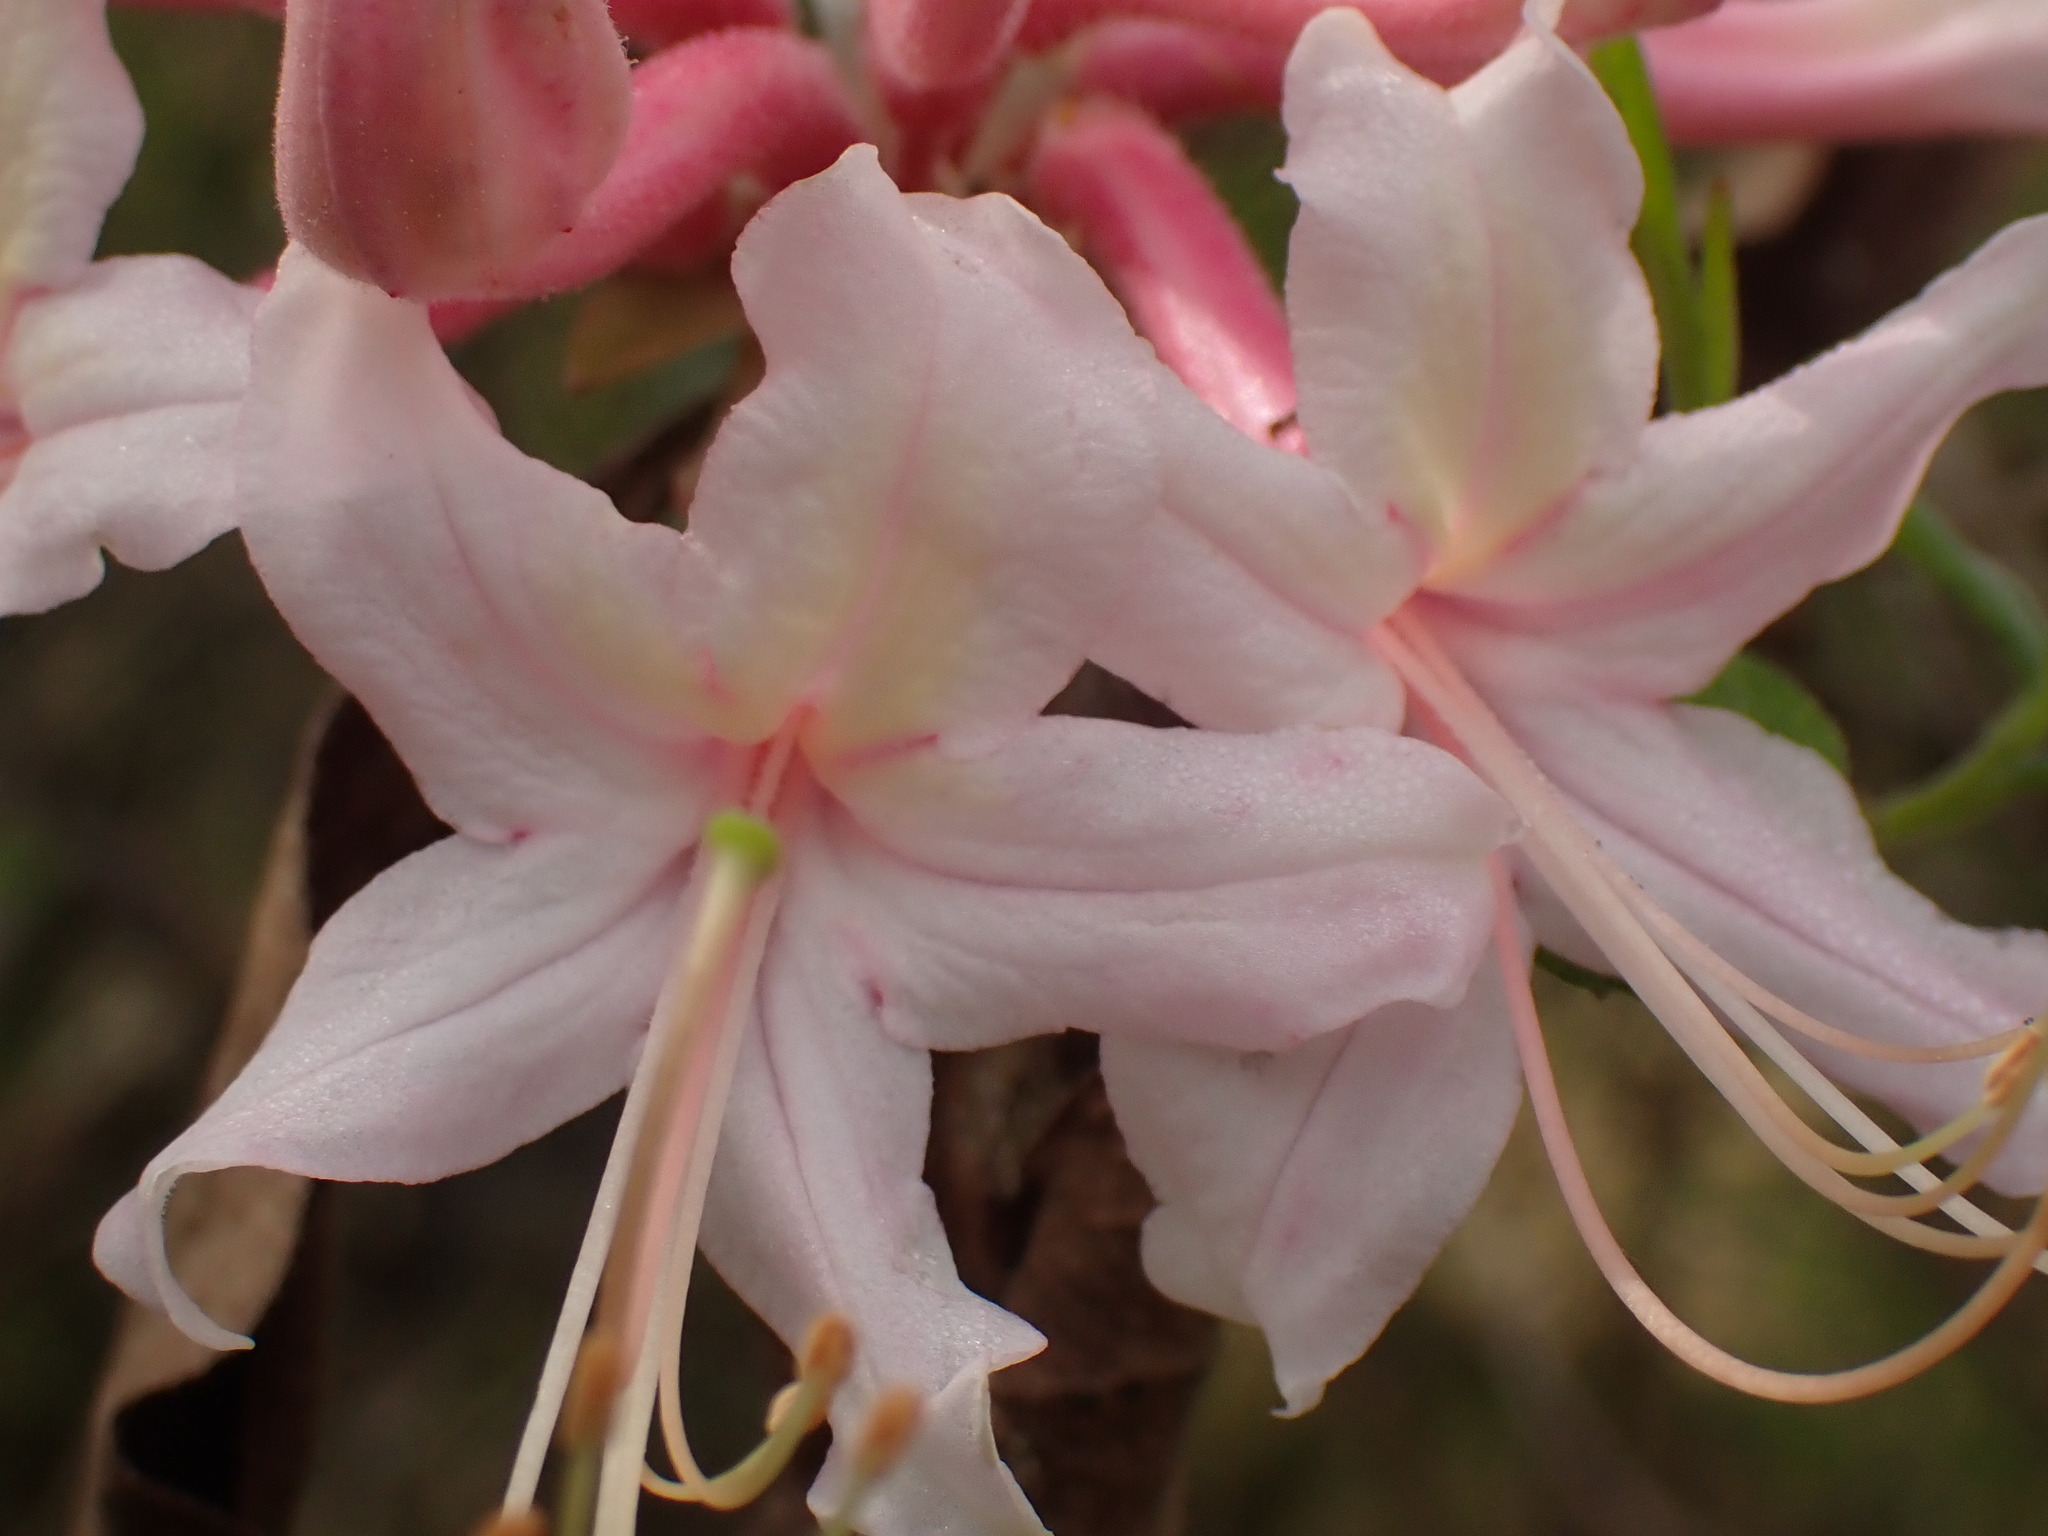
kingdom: Plantae
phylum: Tracheophyta
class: Magnoliopsida
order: Ericales
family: Ericaceae
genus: Rhododendron
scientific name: Rhododendron canescens
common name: Mountain azalea
